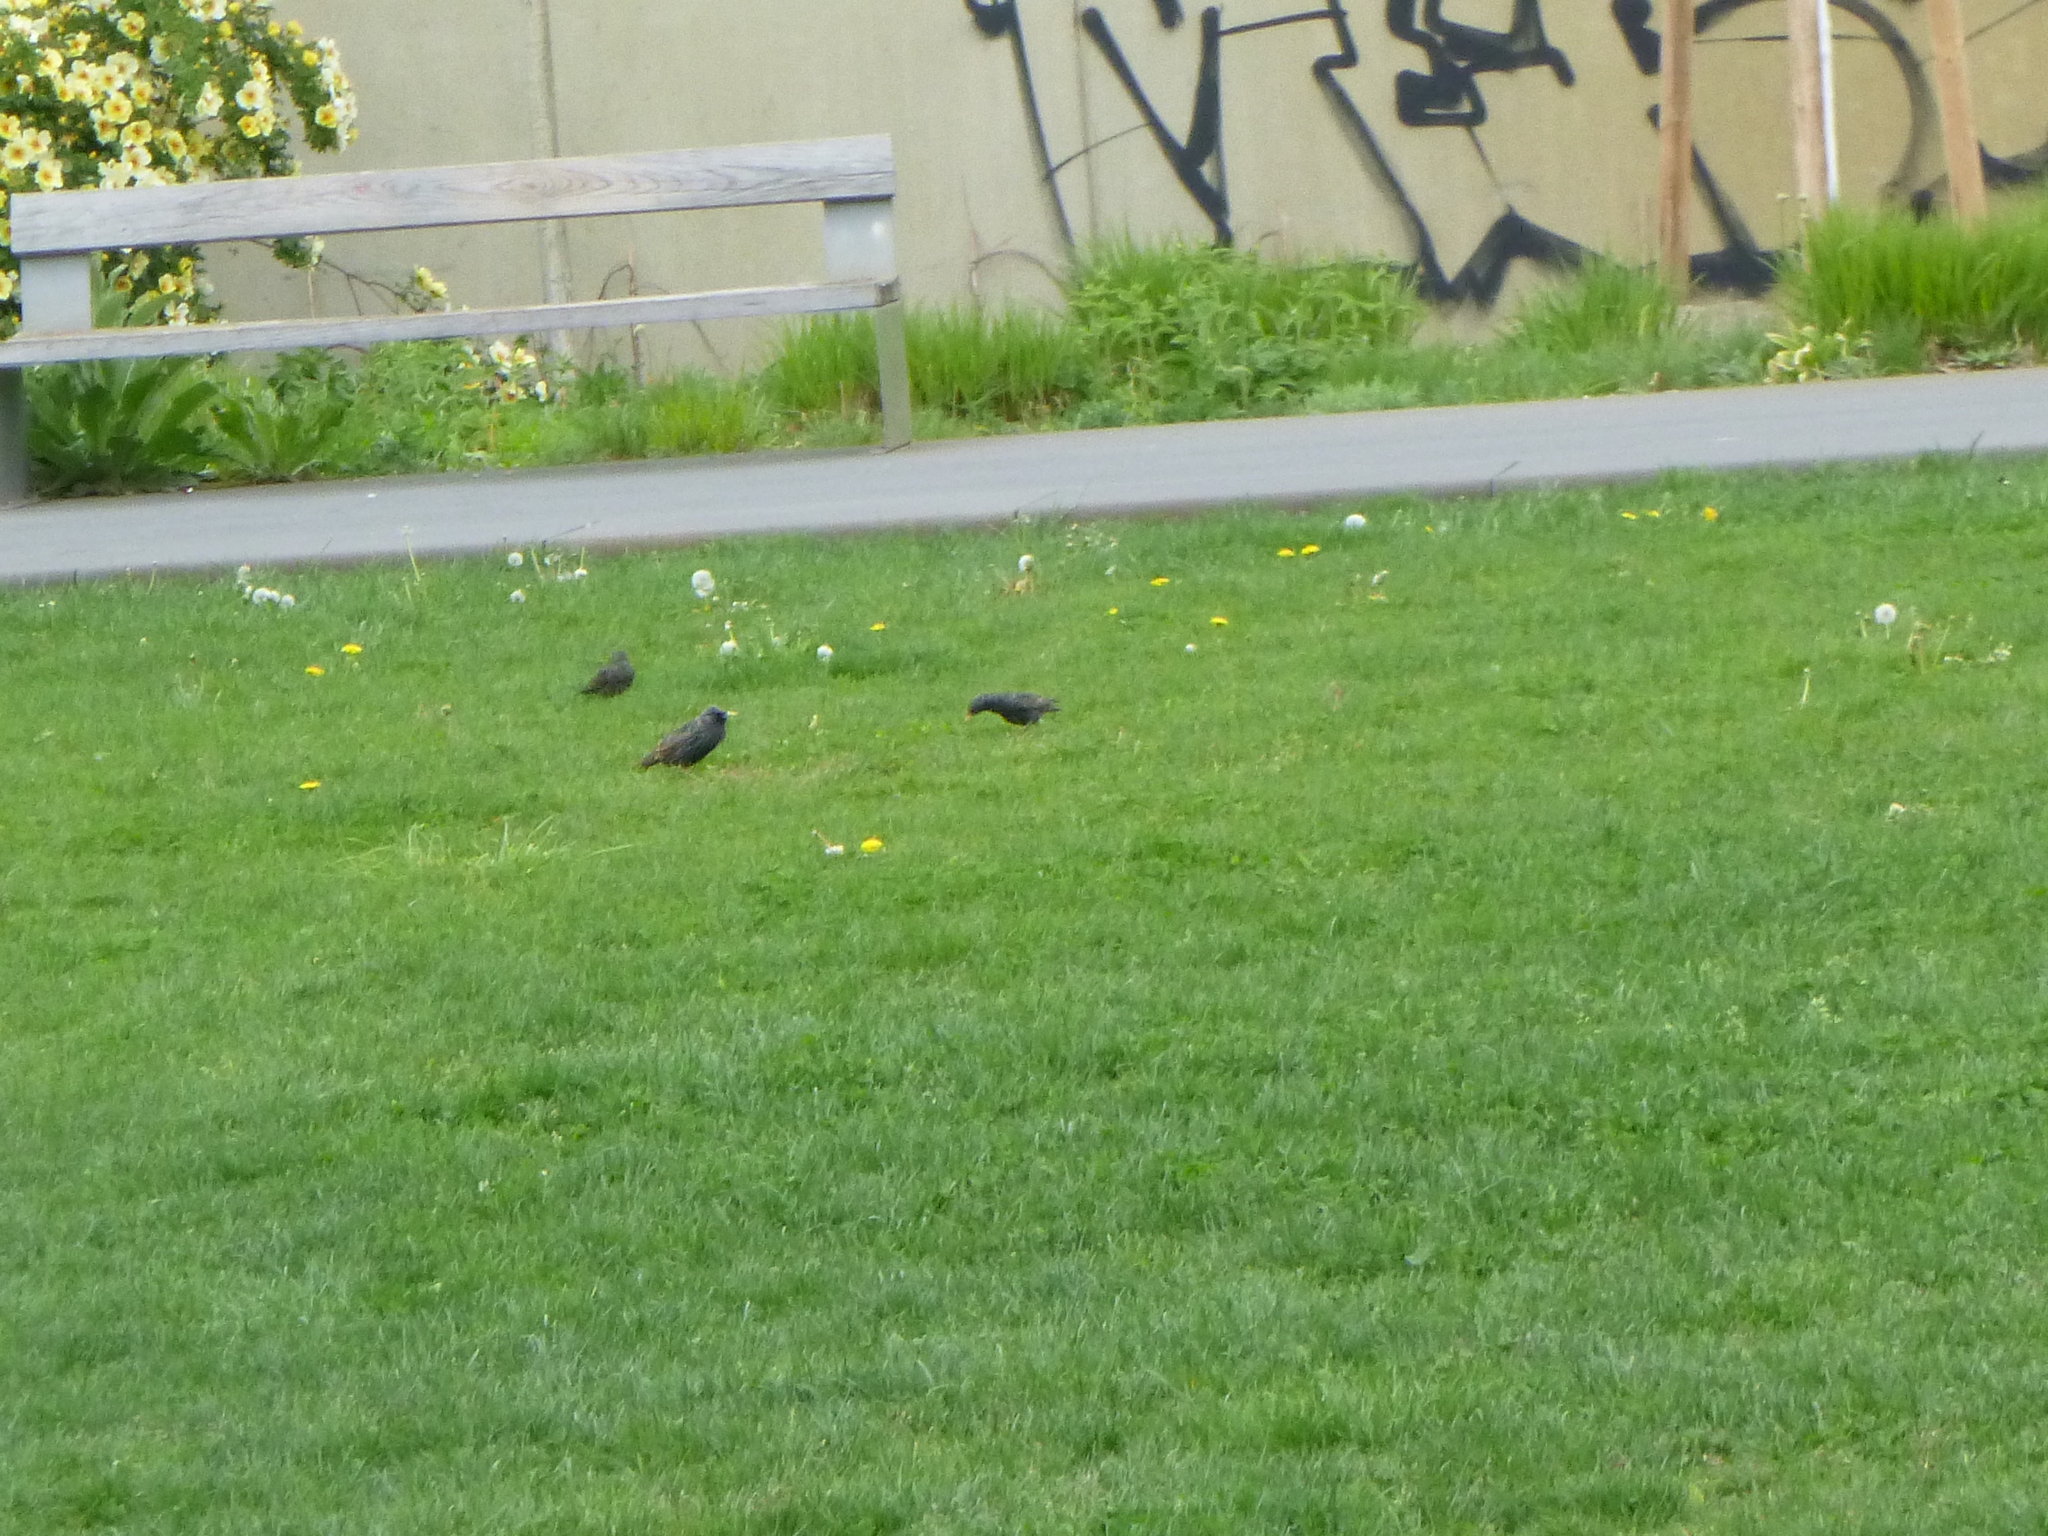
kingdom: Animalia
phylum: Chordata
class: Aves
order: Passeriformes
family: Sturnidae
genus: Sturnus
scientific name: Sturnus vulgaris
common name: Common starling
